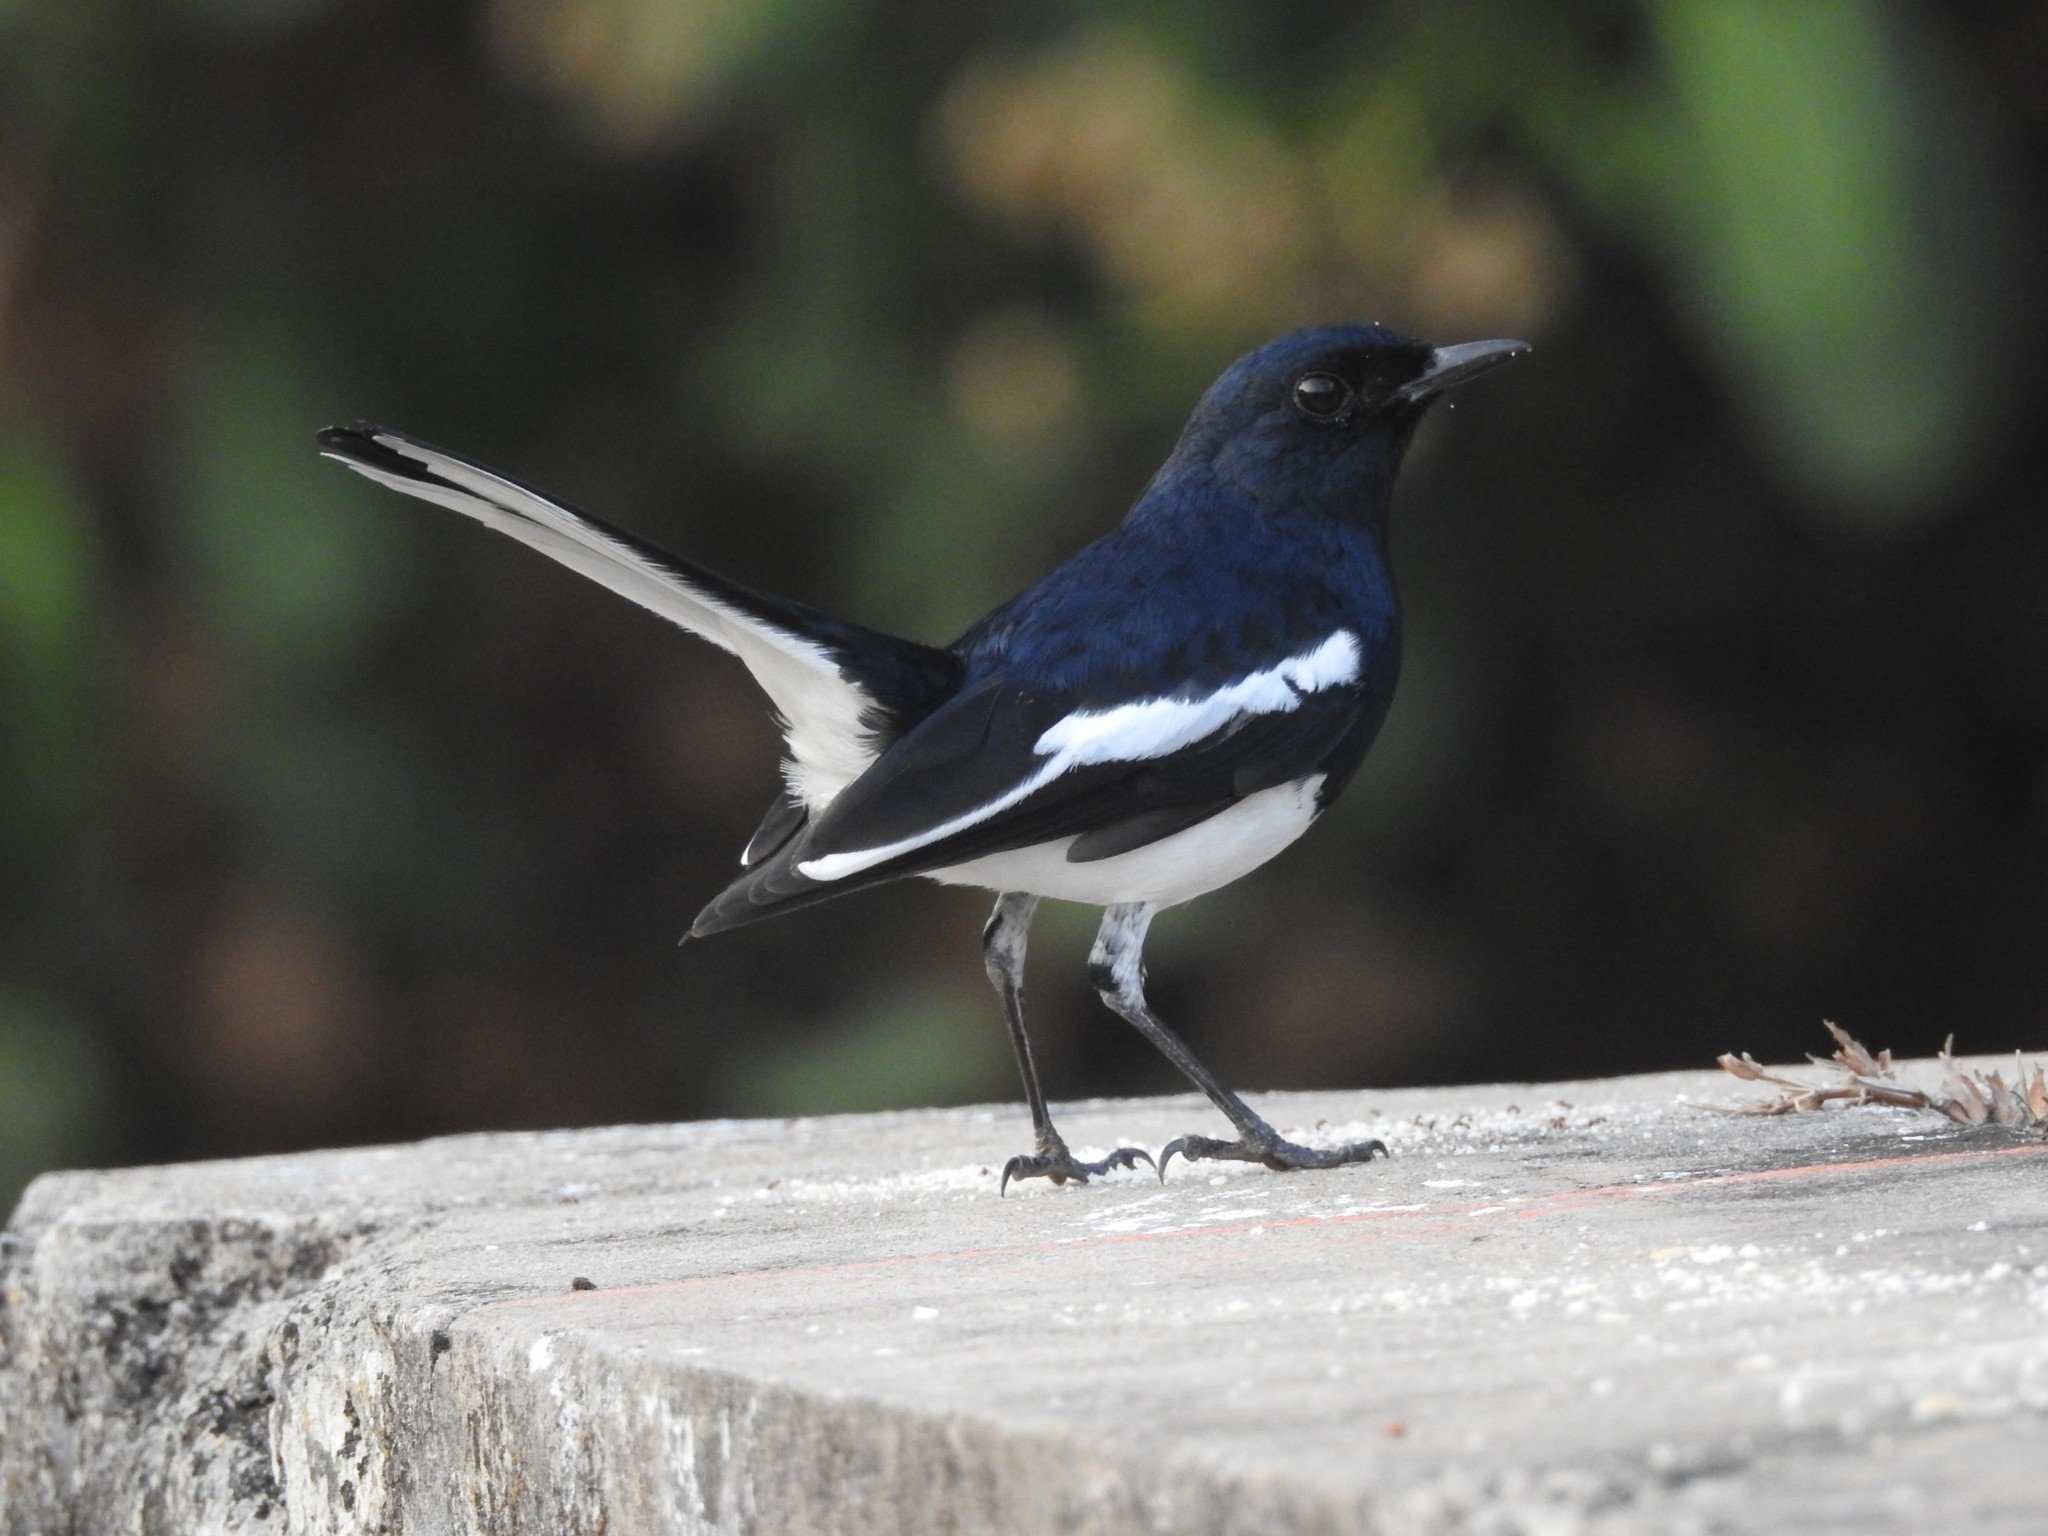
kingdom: Animalia
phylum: Chordata
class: Aves
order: Passeriformes
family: Muscicapidae
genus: Copsychus
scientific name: Copsychus saularis
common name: Oriental magpie-robin
